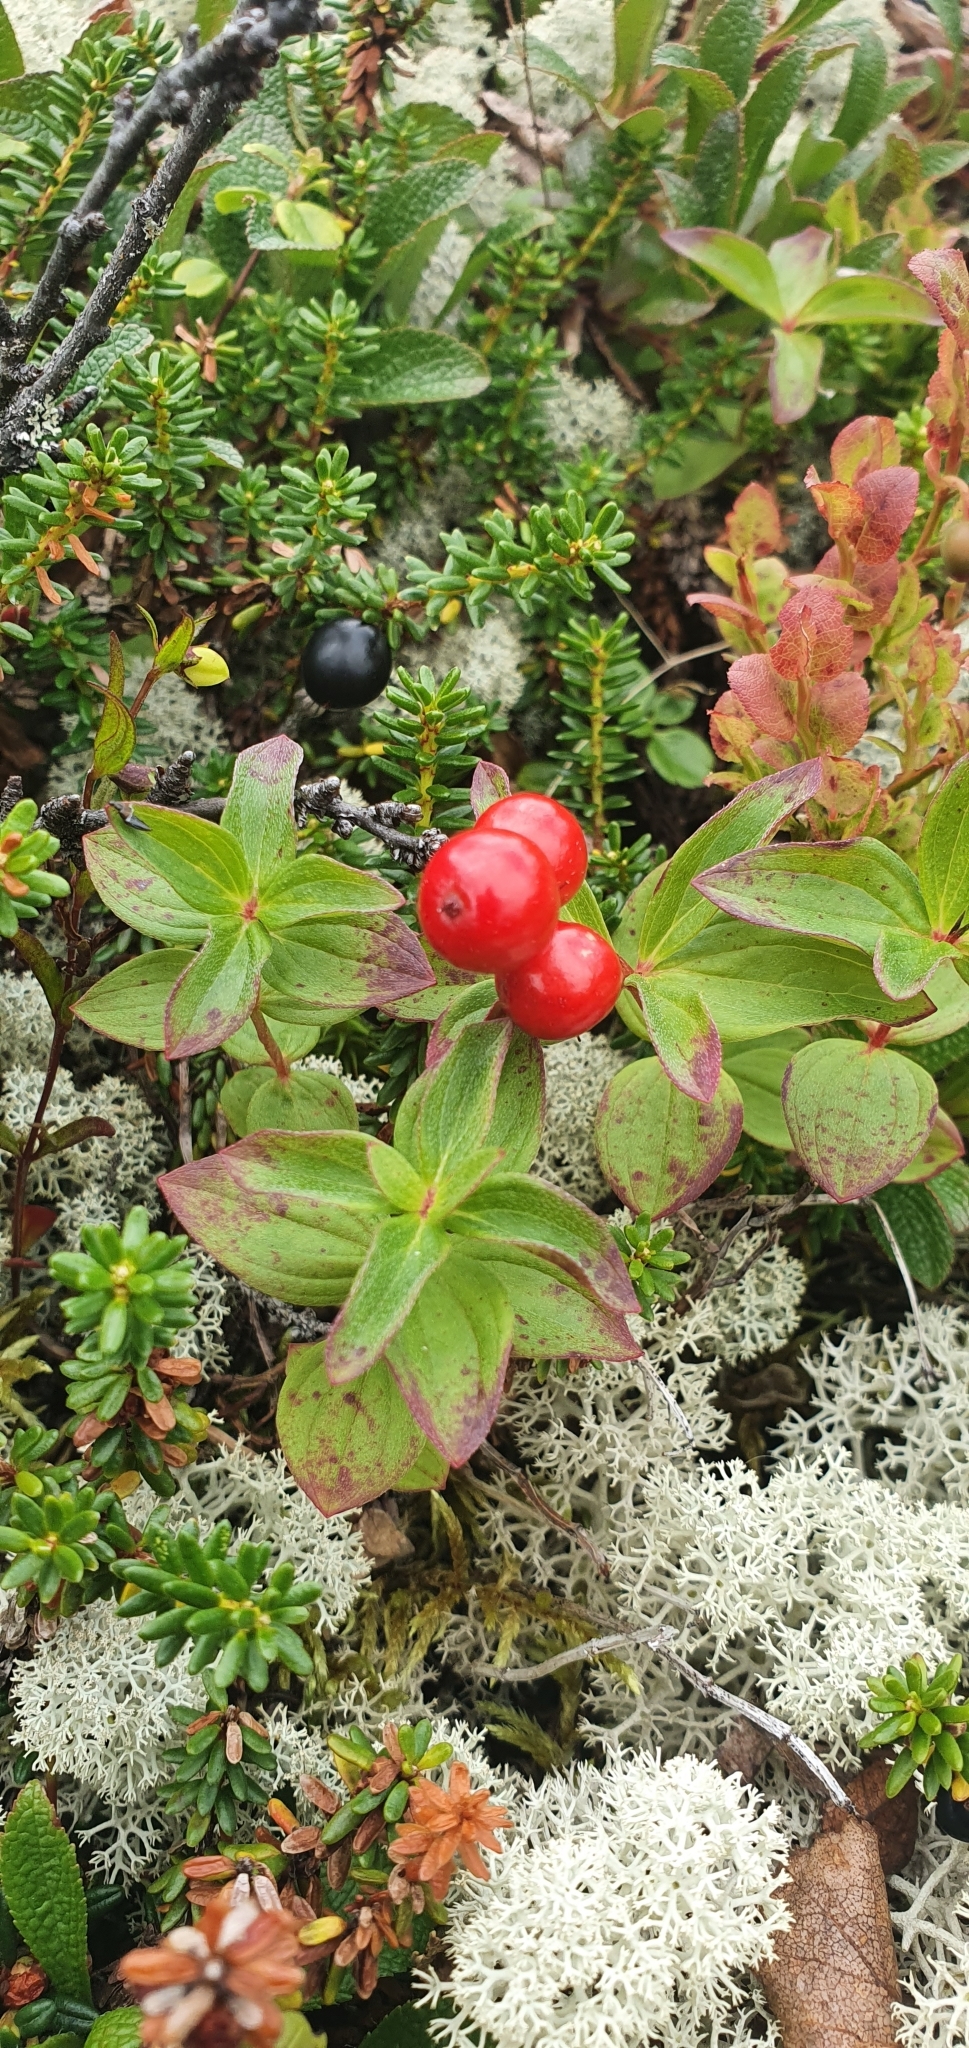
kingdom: Plantae
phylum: Tracheophyta
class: Magnoliopsida
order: Cornales
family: Cornaceae
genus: Cornus
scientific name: Cornus suecica
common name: Dwarf cornel
